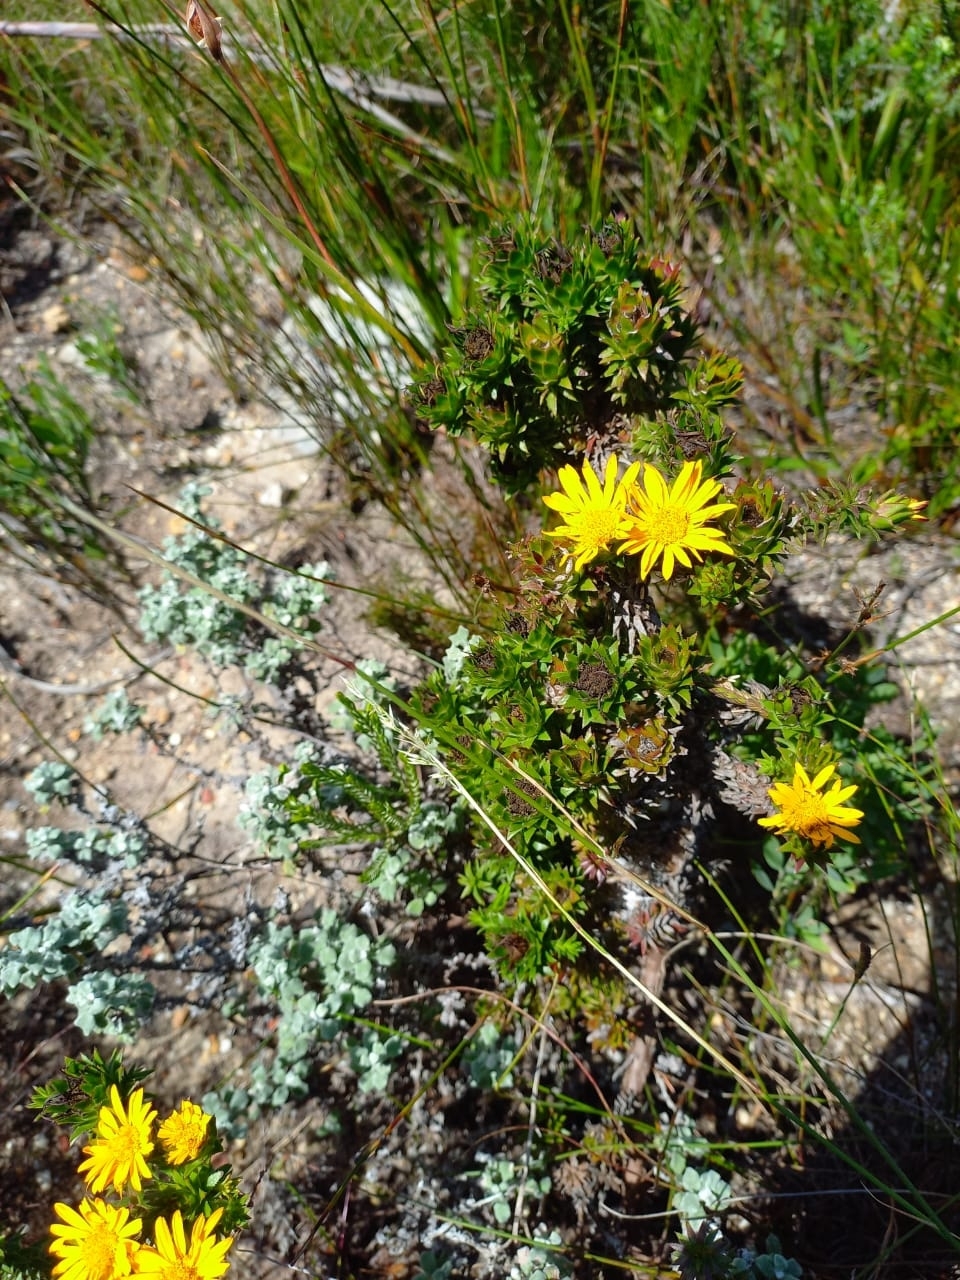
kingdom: Plantae
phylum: Tracheophyta
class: Magnoliopsida
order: Asterales
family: Asteraceae
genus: Oedera
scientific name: Oedera imbricata
